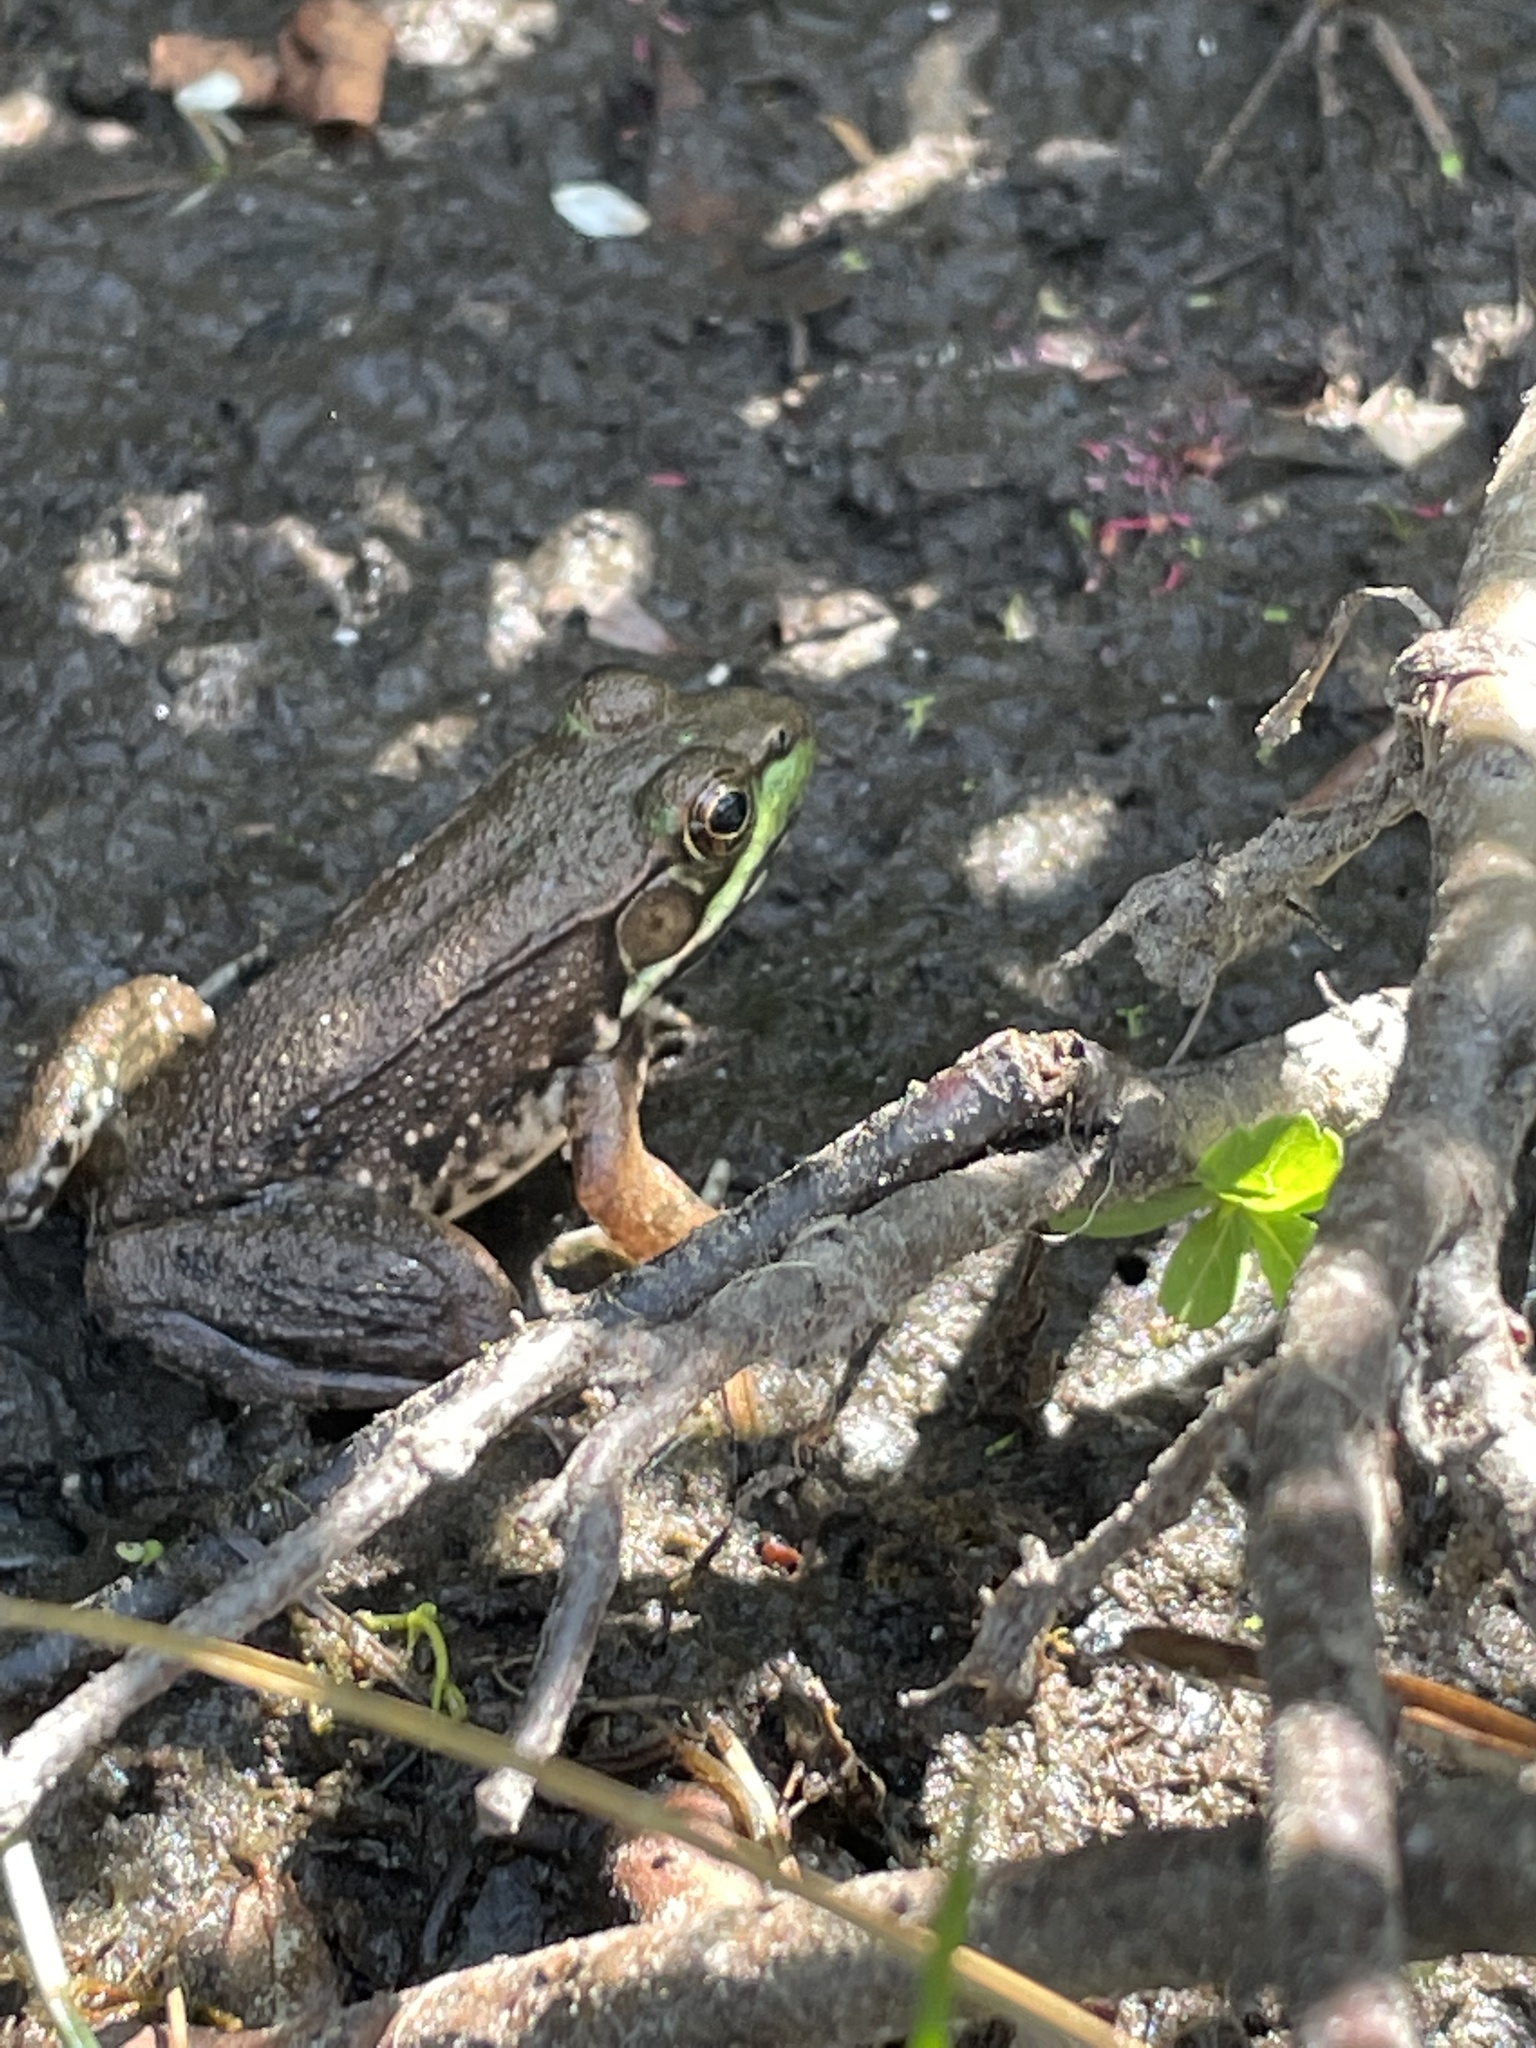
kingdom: Animalia
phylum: Chordata
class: Amphibia
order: Anura
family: Ranidae
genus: Lithobates
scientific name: Lithobates clamitans
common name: Green frog
